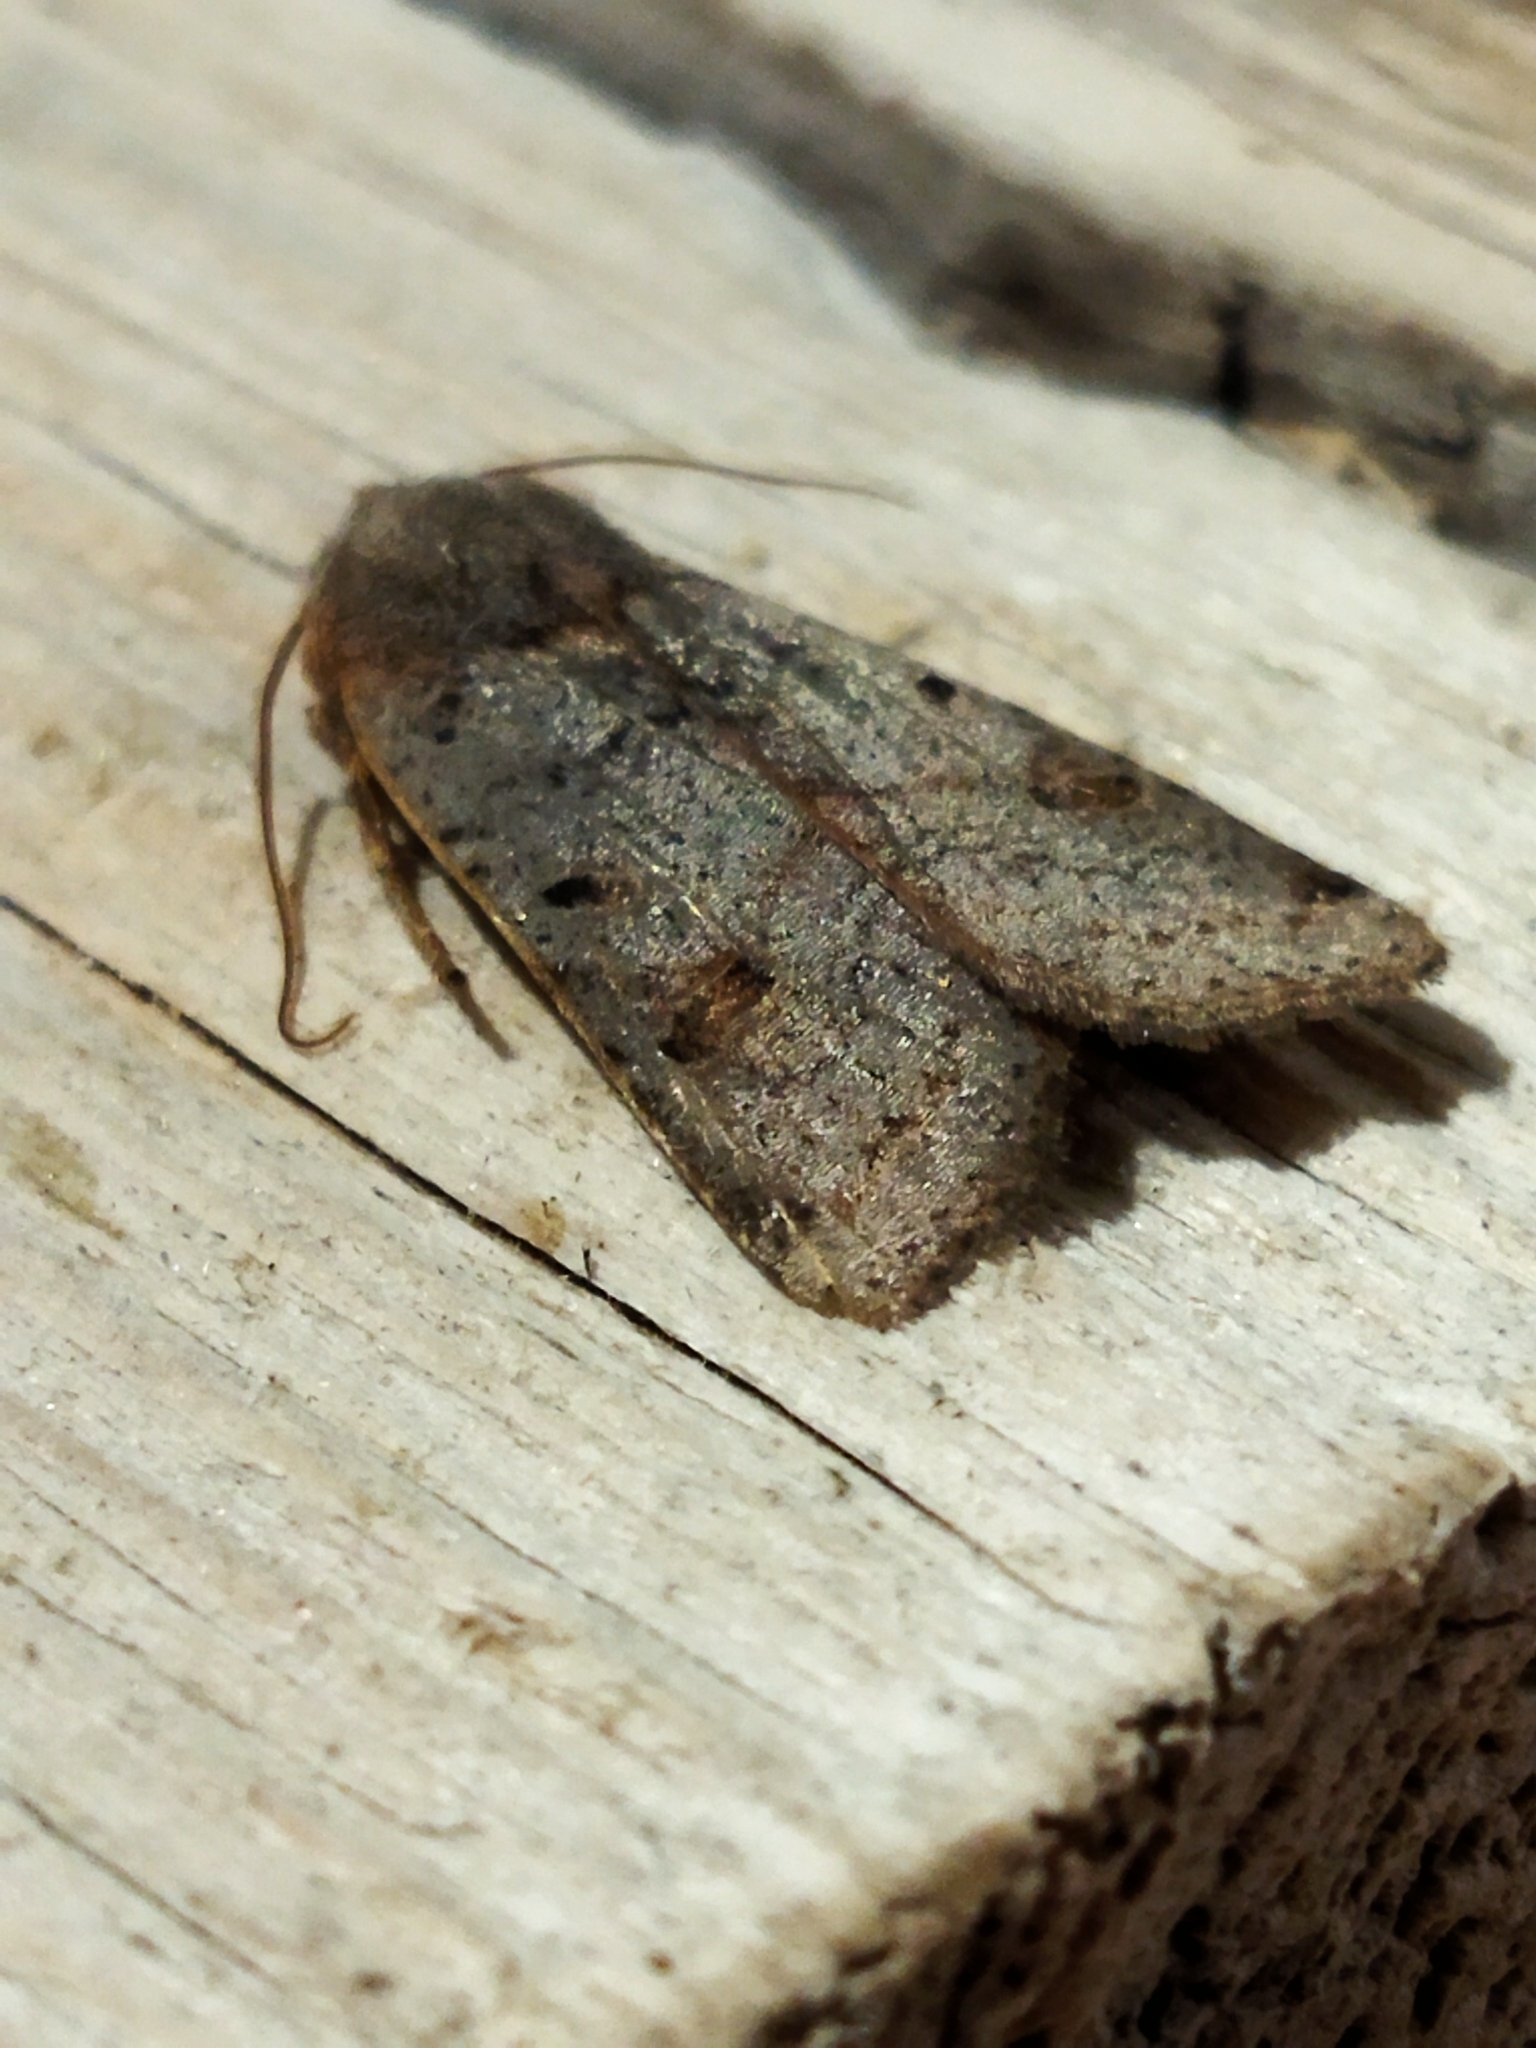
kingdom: Animalia
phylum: Arthropoda
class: Insecta
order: Lepidoptera
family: Noctuidae
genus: Agrochola
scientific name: Agrochola lychnidis
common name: Beaded chestnut
